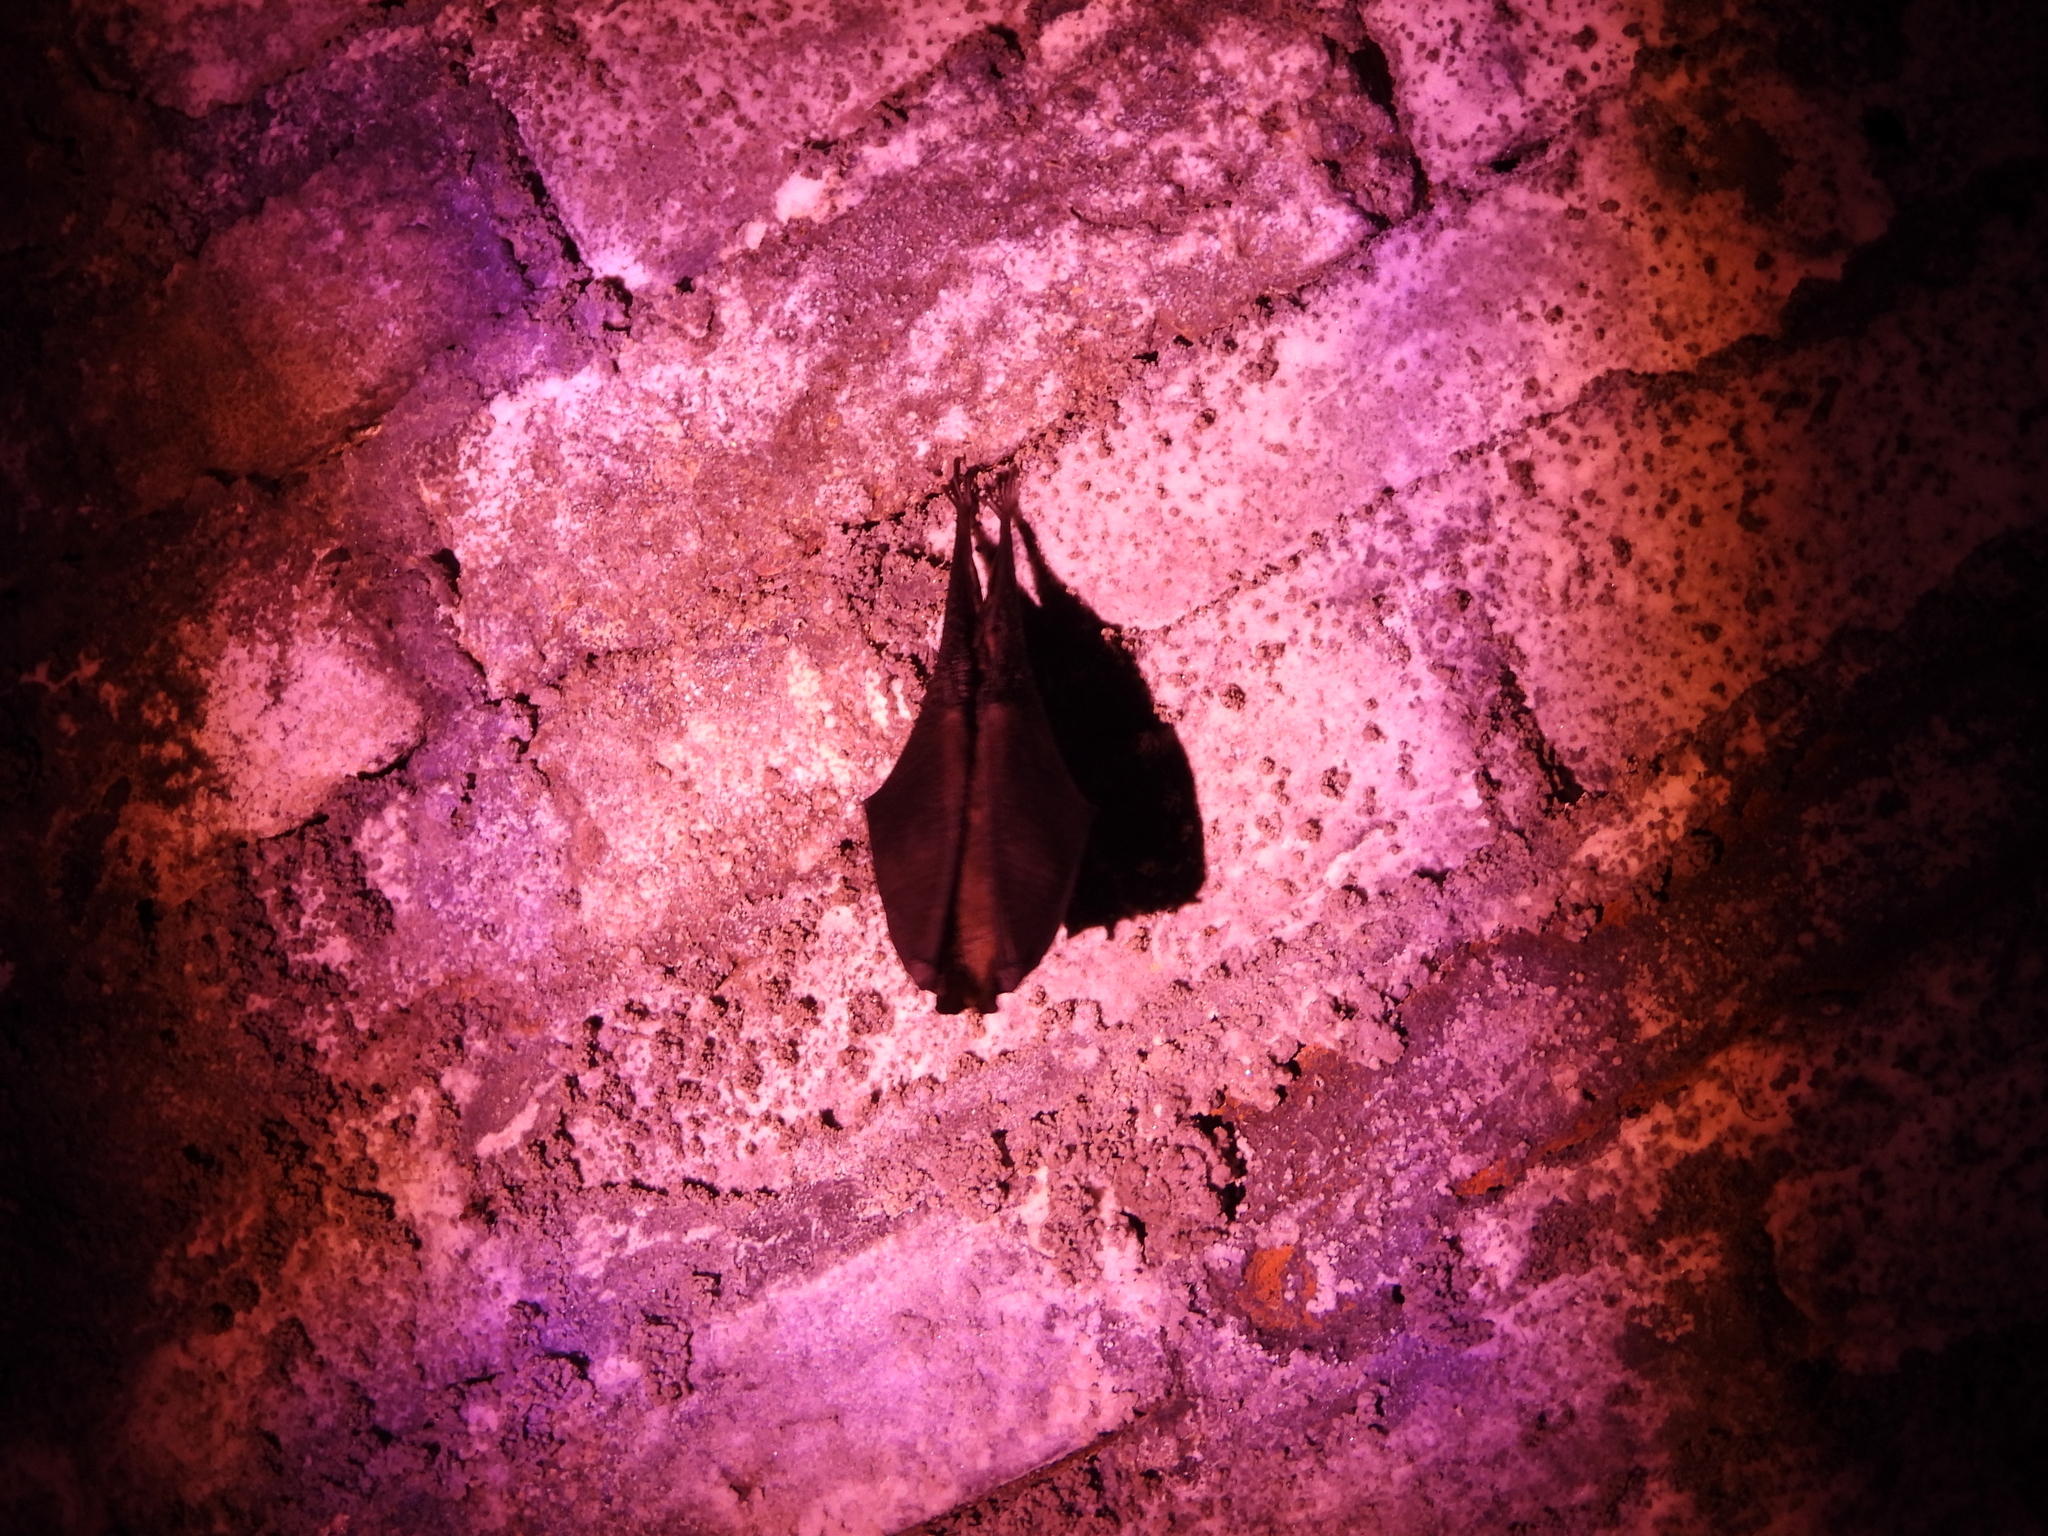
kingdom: Animalia
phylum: Chordata
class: Mammalia
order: Chiroptera
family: Rhinolophidae
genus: Rhinolophus
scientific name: Rhinolophus formosae
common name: Formosan woolly horseshoe bat
